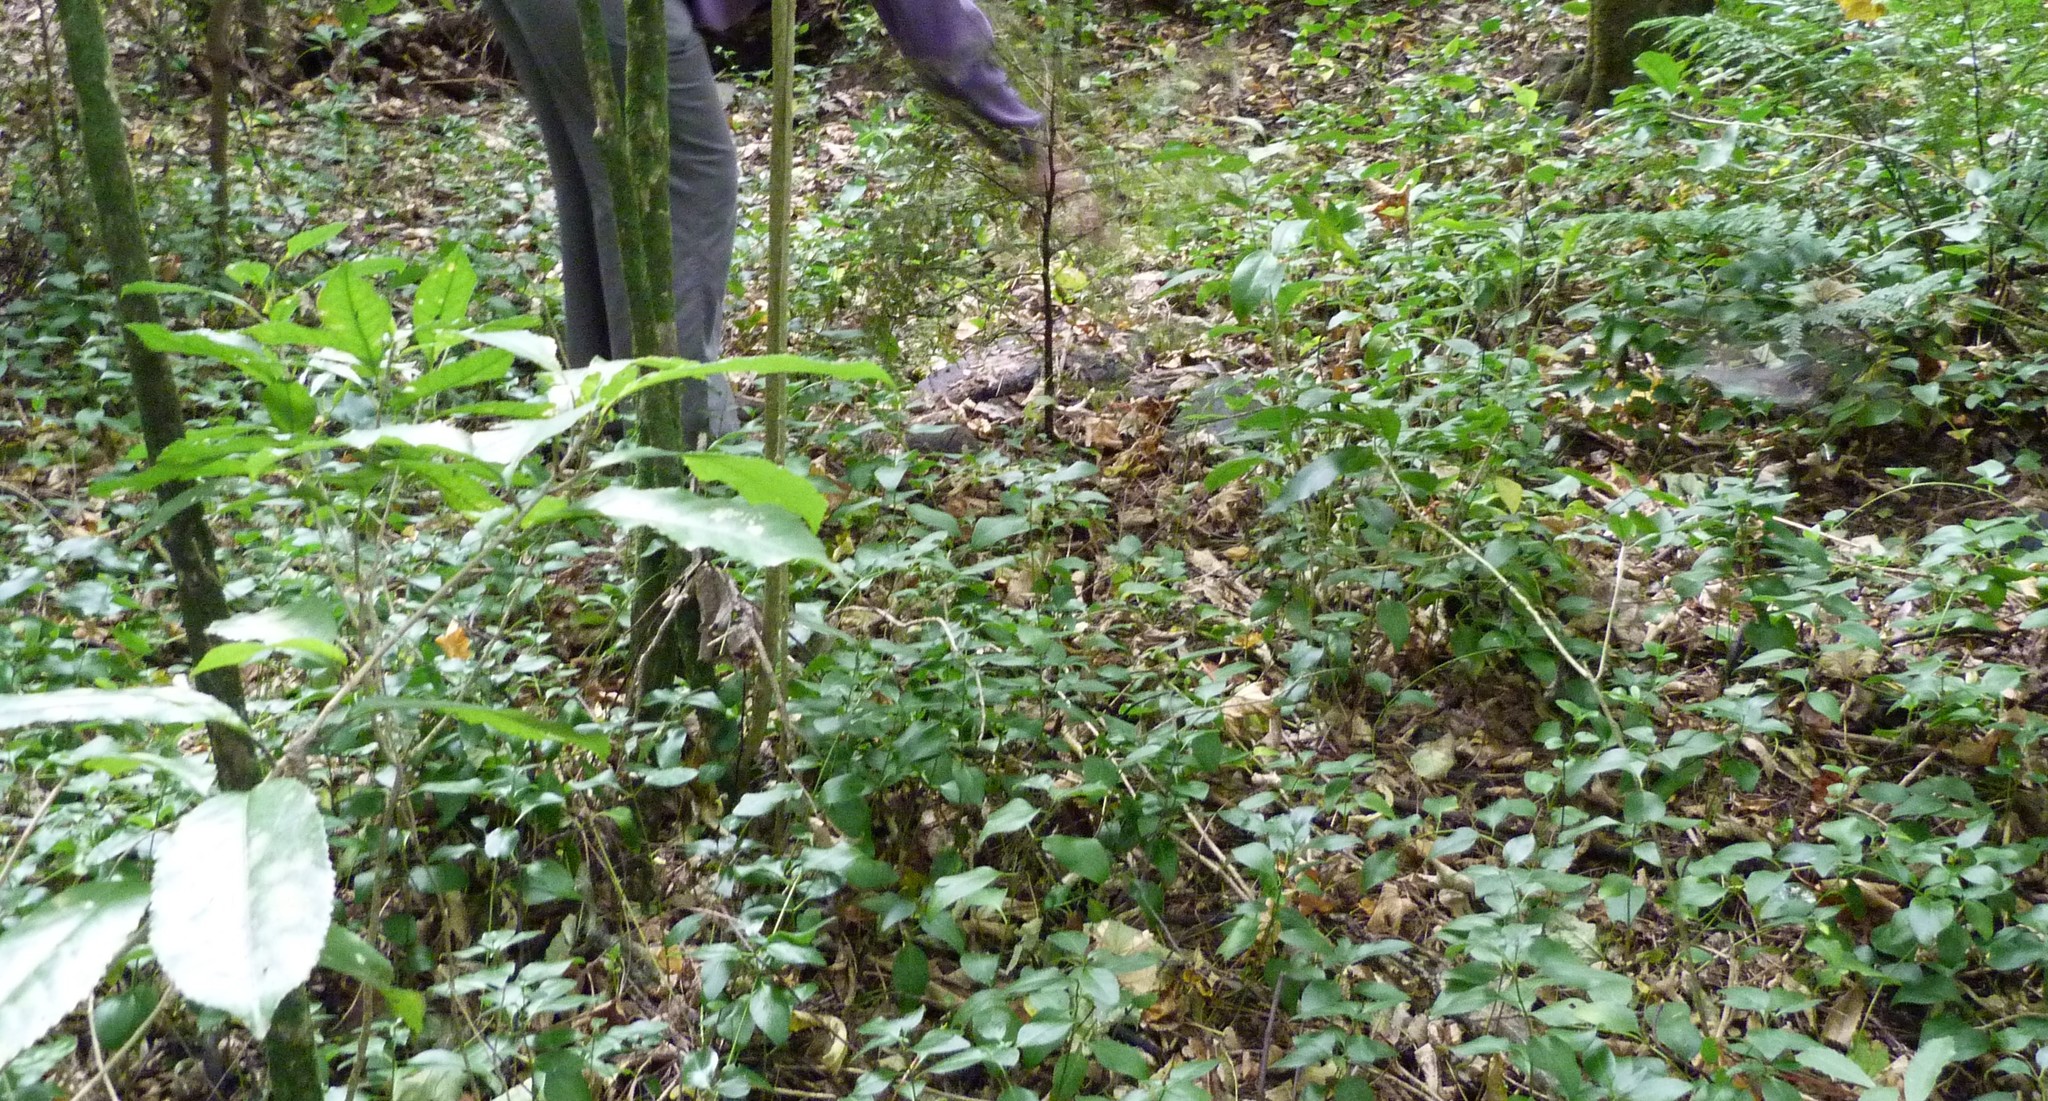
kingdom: Plantae
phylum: Tracheophyta
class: Magnoliopsida
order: Gentianales
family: Apocynaceae
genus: Vinca
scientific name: Vinca major
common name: Greater periwinkle
